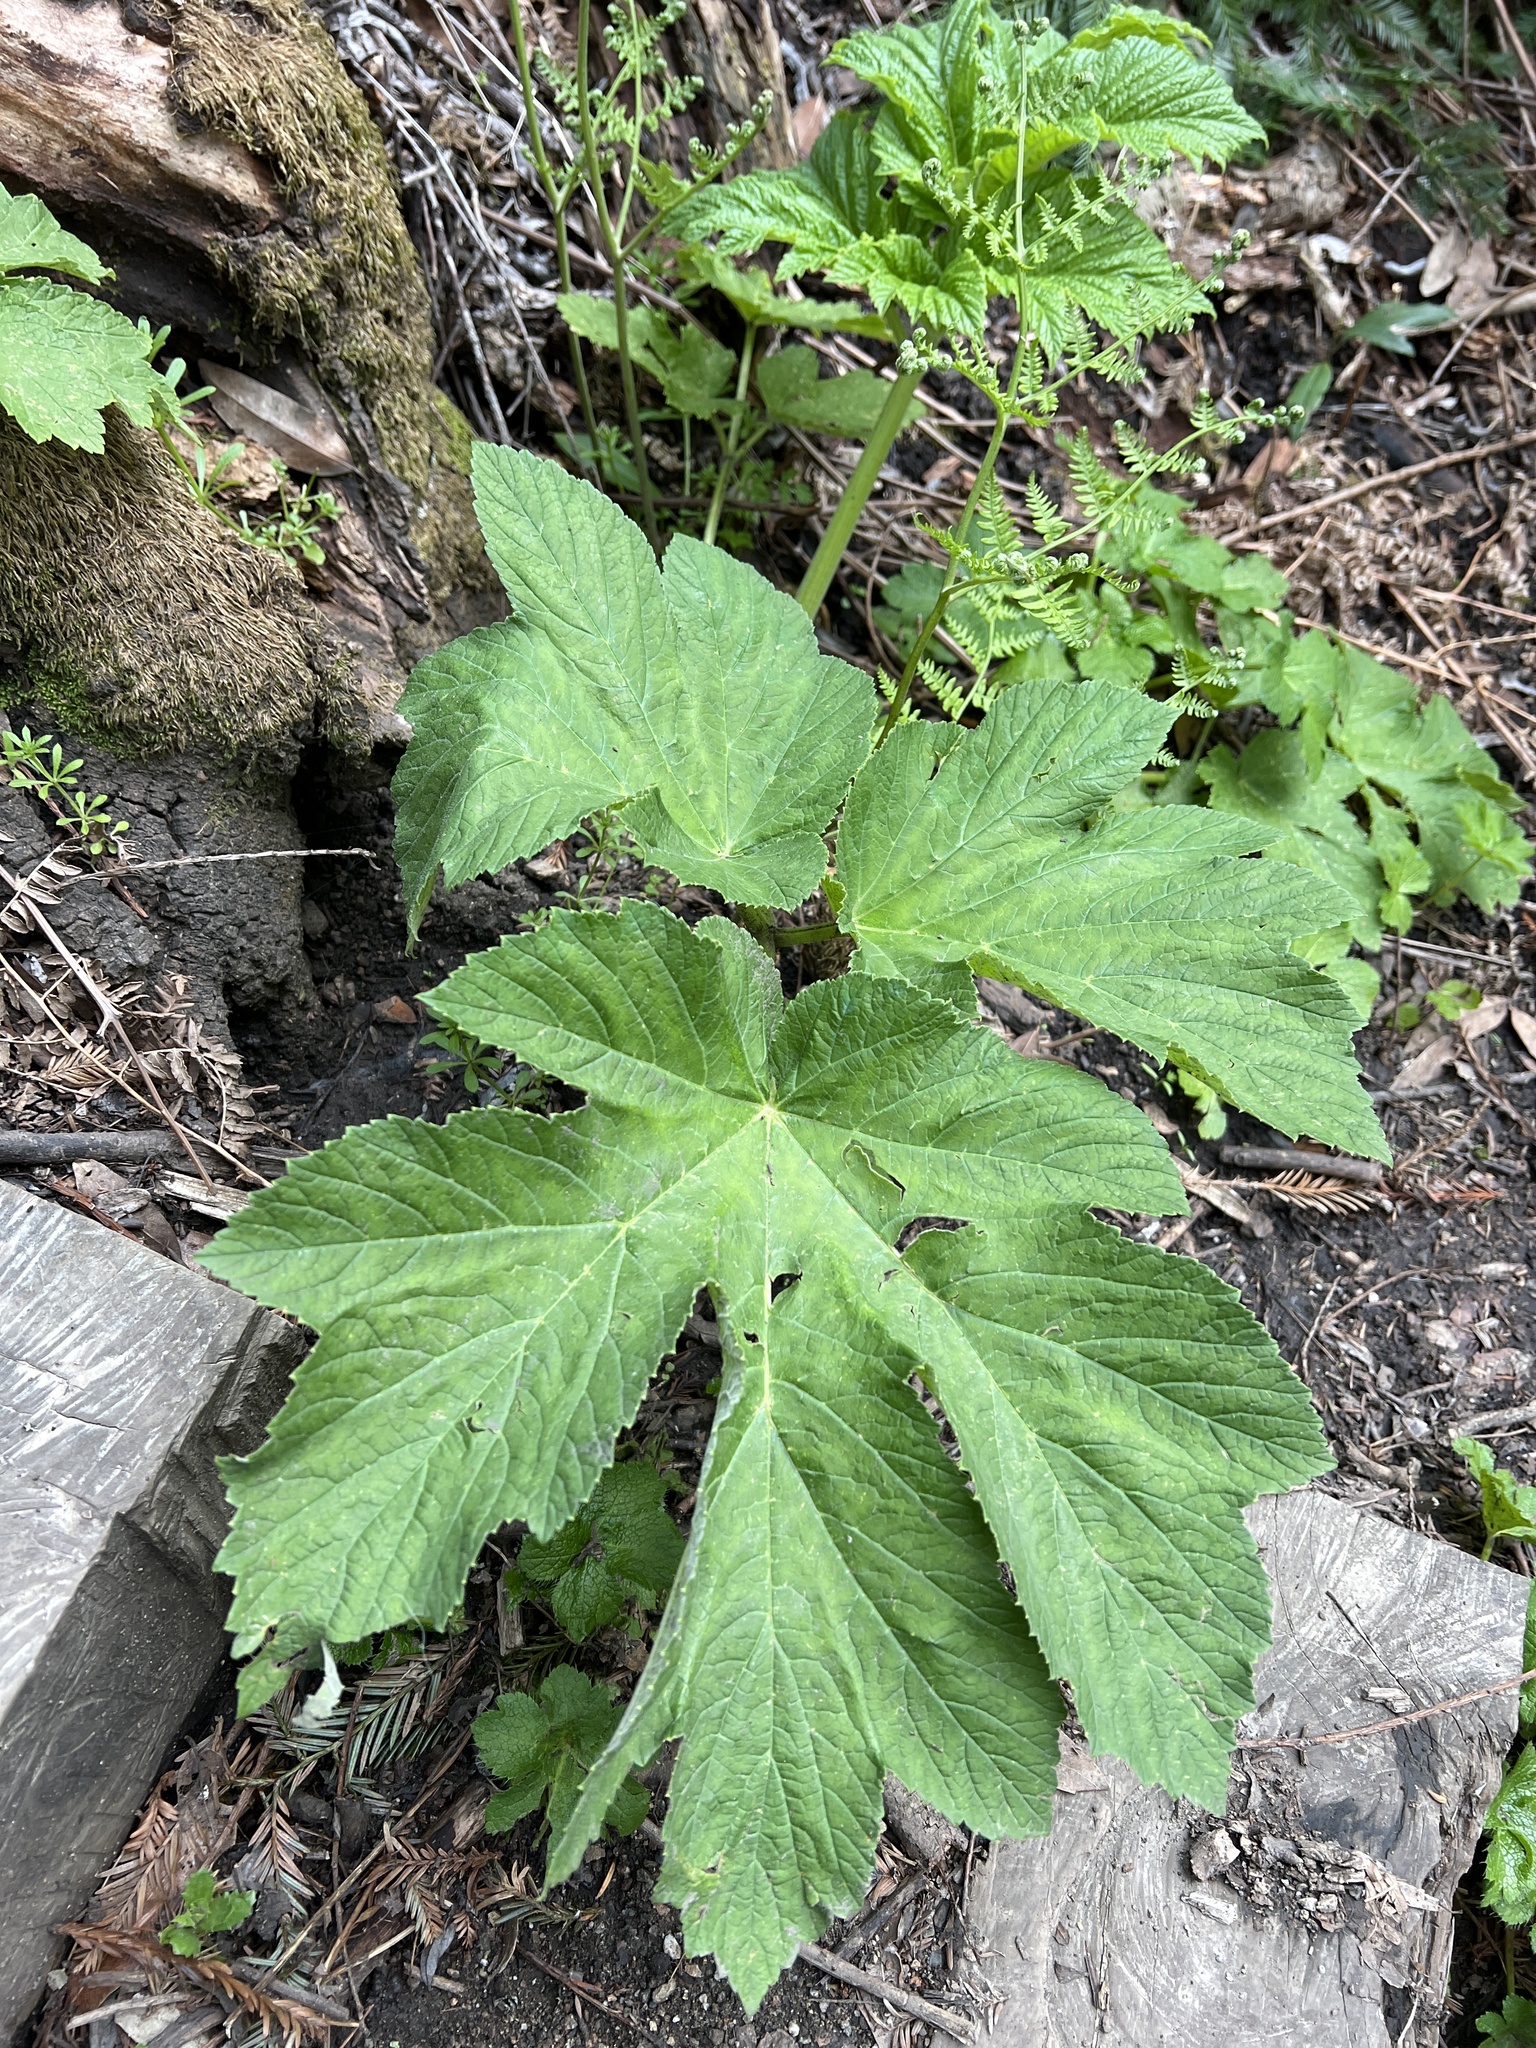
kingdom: Plantae
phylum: Tracheophyta
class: Magnoliopsida
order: Apiales
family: Apiaceae
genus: Heracleum
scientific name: Heracleum maximum
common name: American cow parsnip
